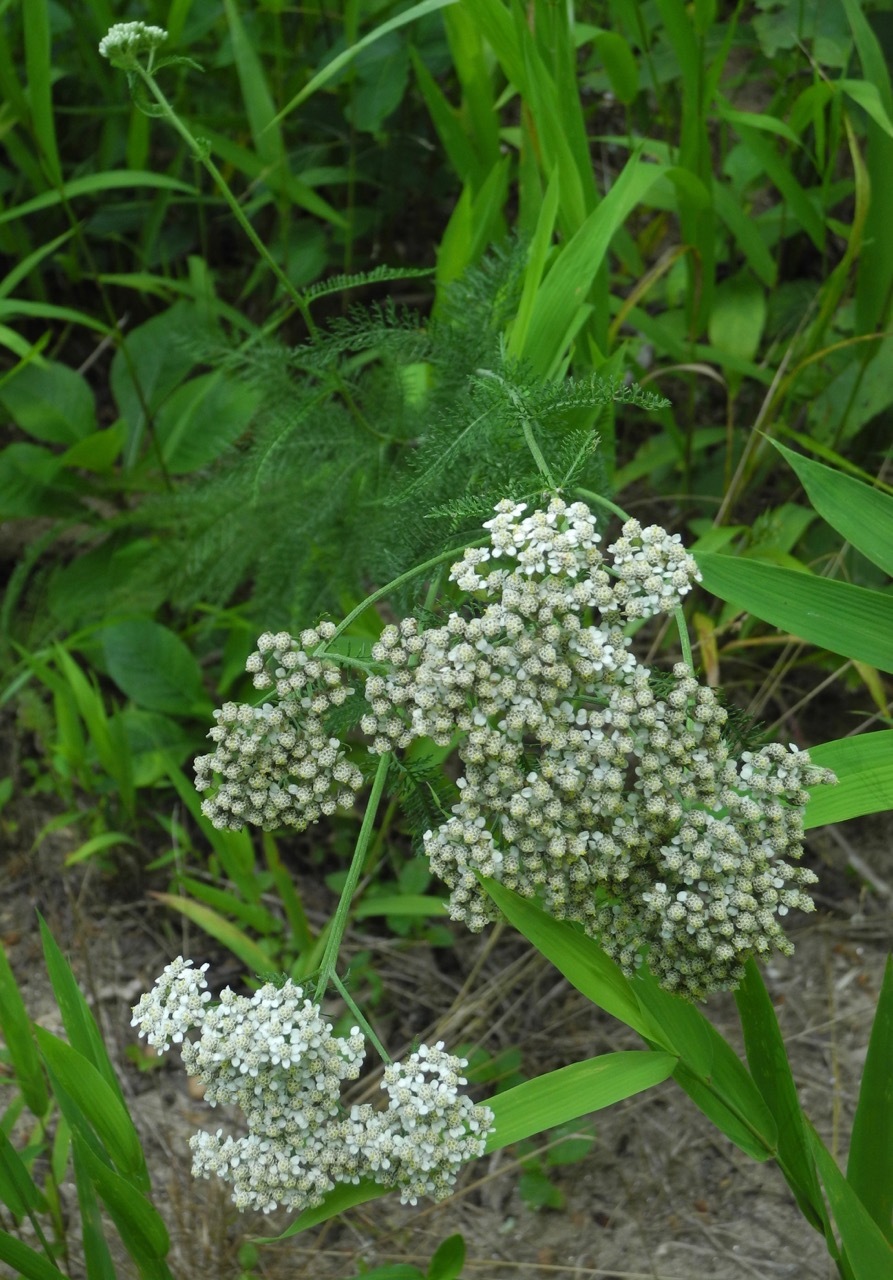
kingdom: Plantae
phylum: Tracheophyta
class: Magnoliopsida
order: Asterales
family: Asteraceae
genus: Achillea
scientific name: Achillea millefolium
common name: Yarrow
